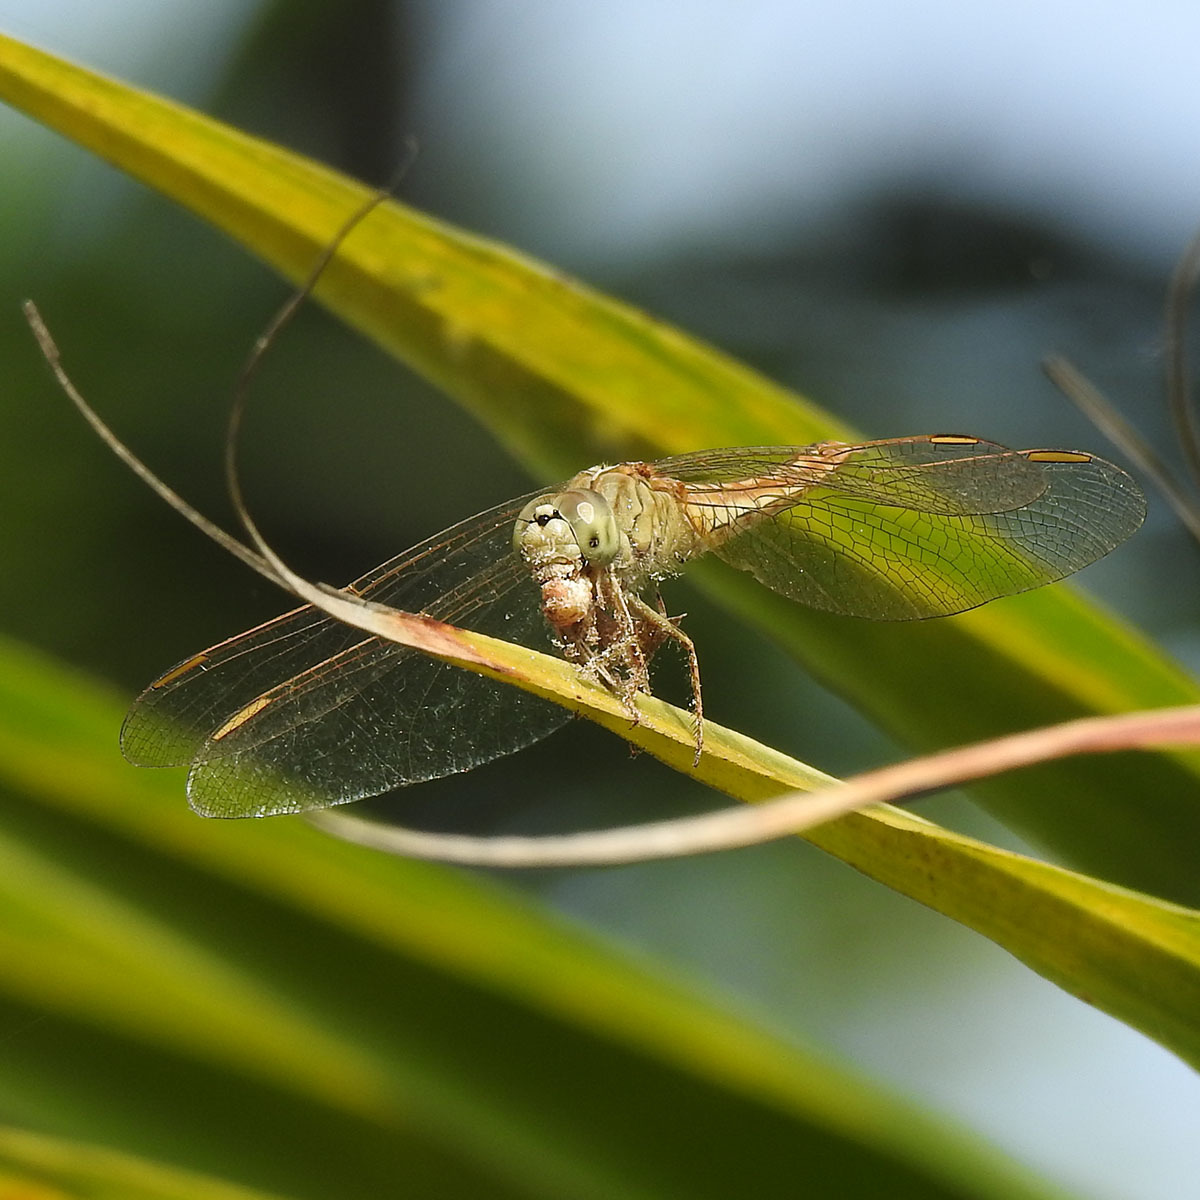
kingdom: Animalia
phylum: Arthropoda
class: Insecta
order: Odonata
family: Libellulidae
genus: Brachythemis
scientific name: Brachythemis contaminata
